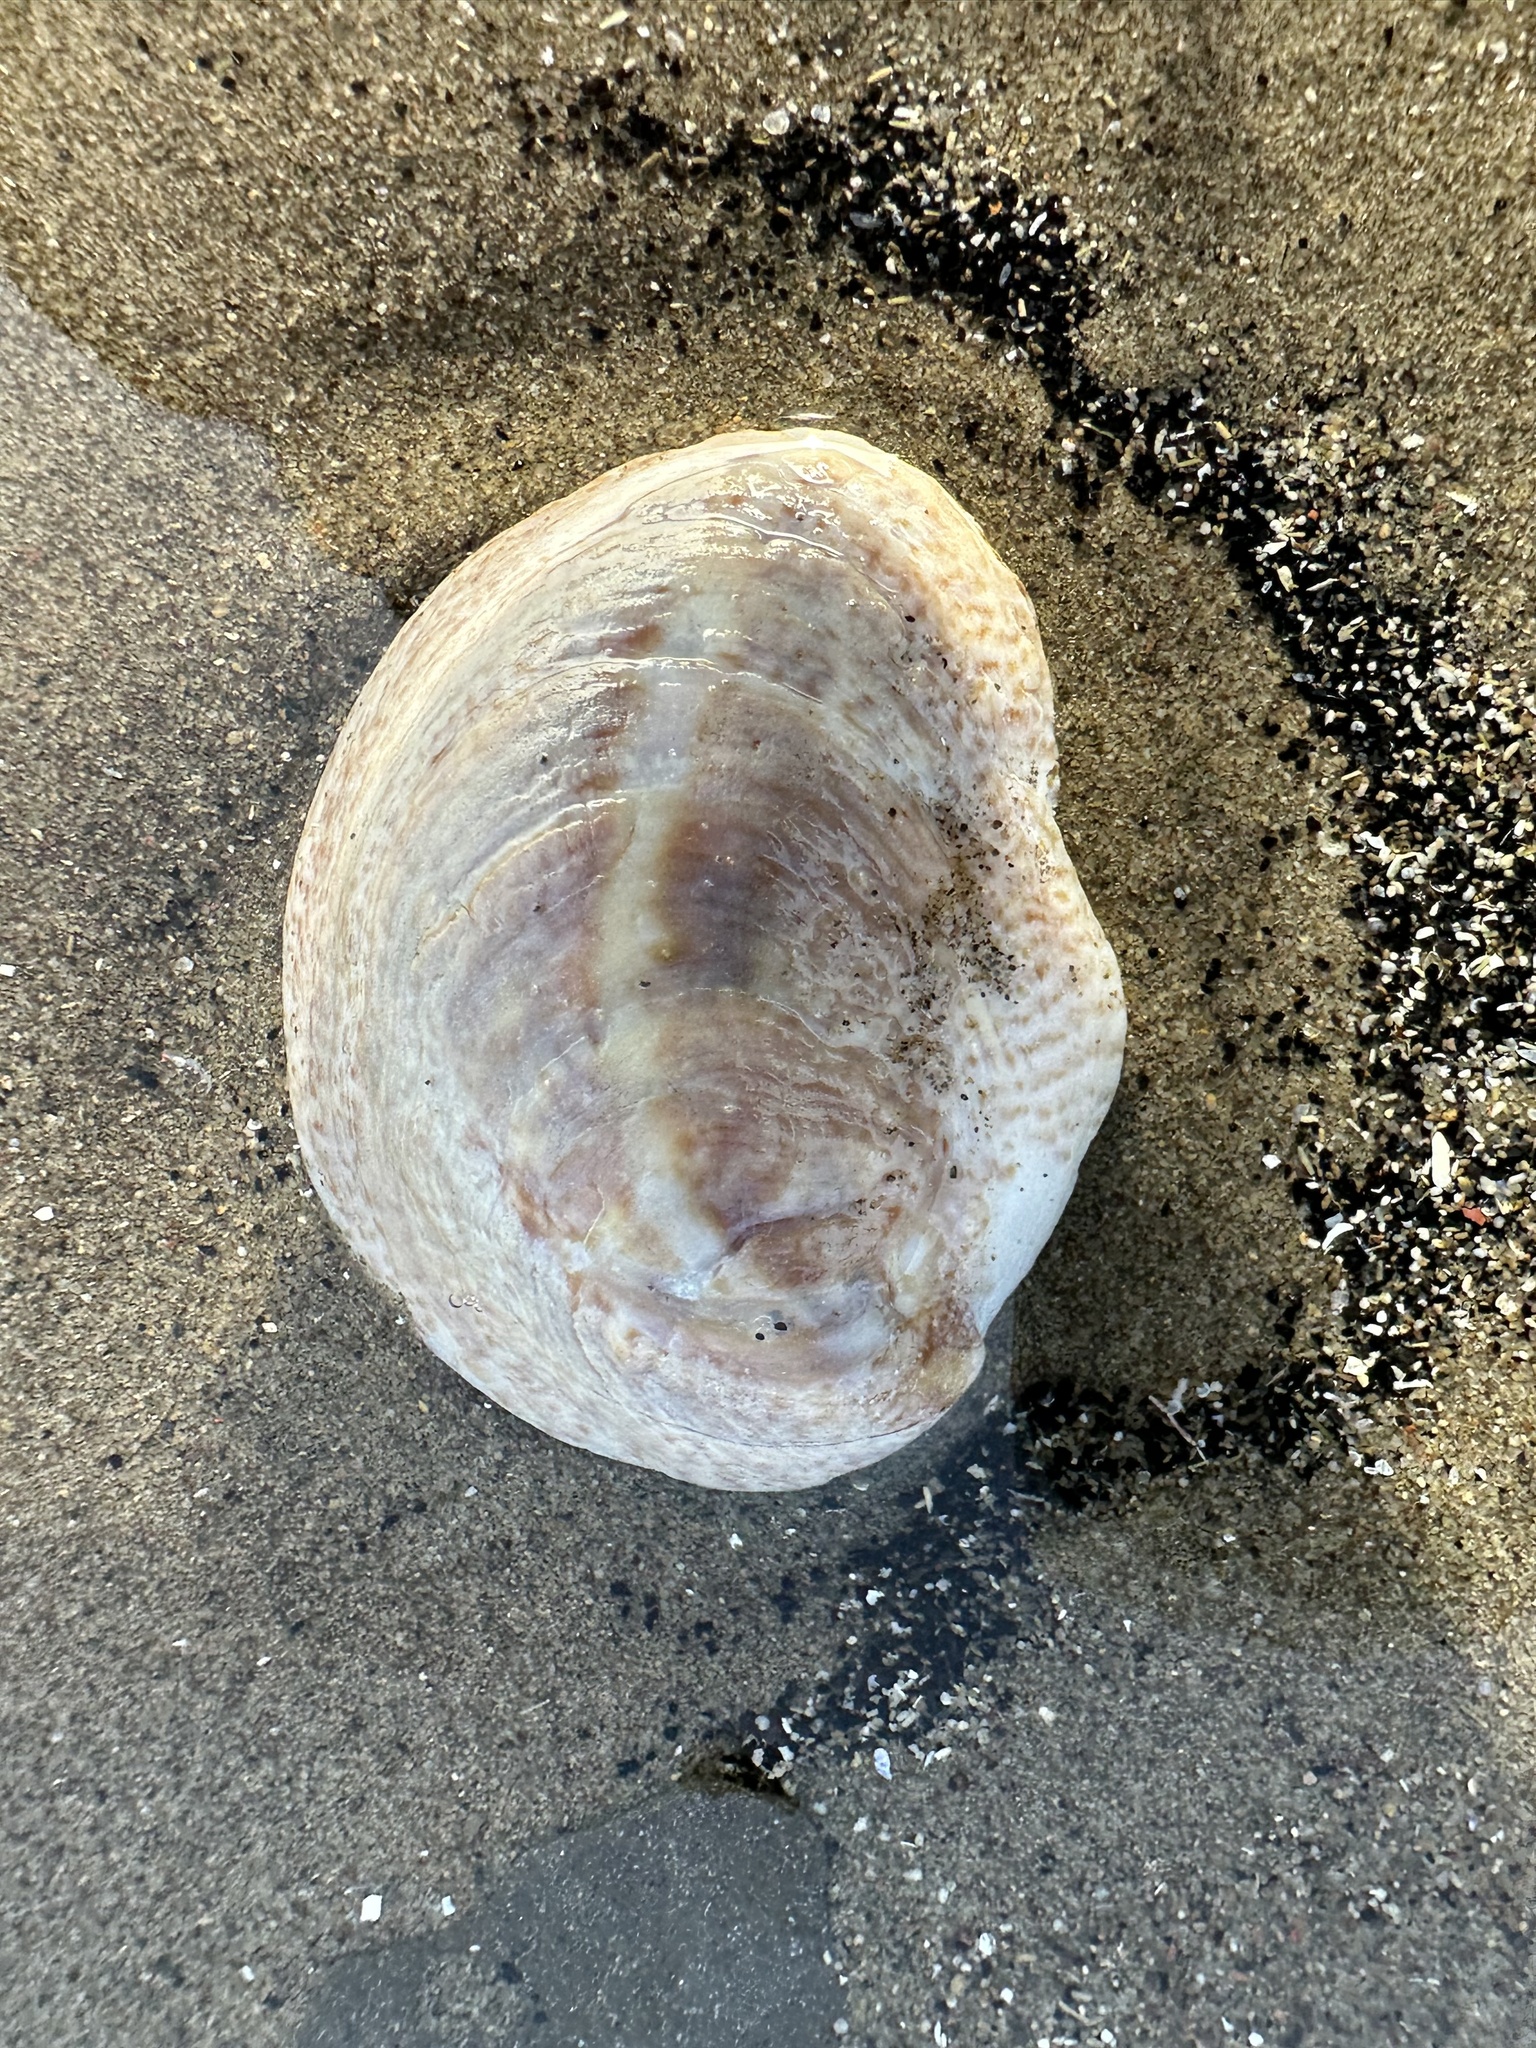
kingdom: Animalia
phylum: Mollusca
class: Gastropoda
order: Littorinimorpha
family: Calyptraeidae
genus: Crepidula
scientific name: Crepidula fornicata
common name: Slipper limpet
